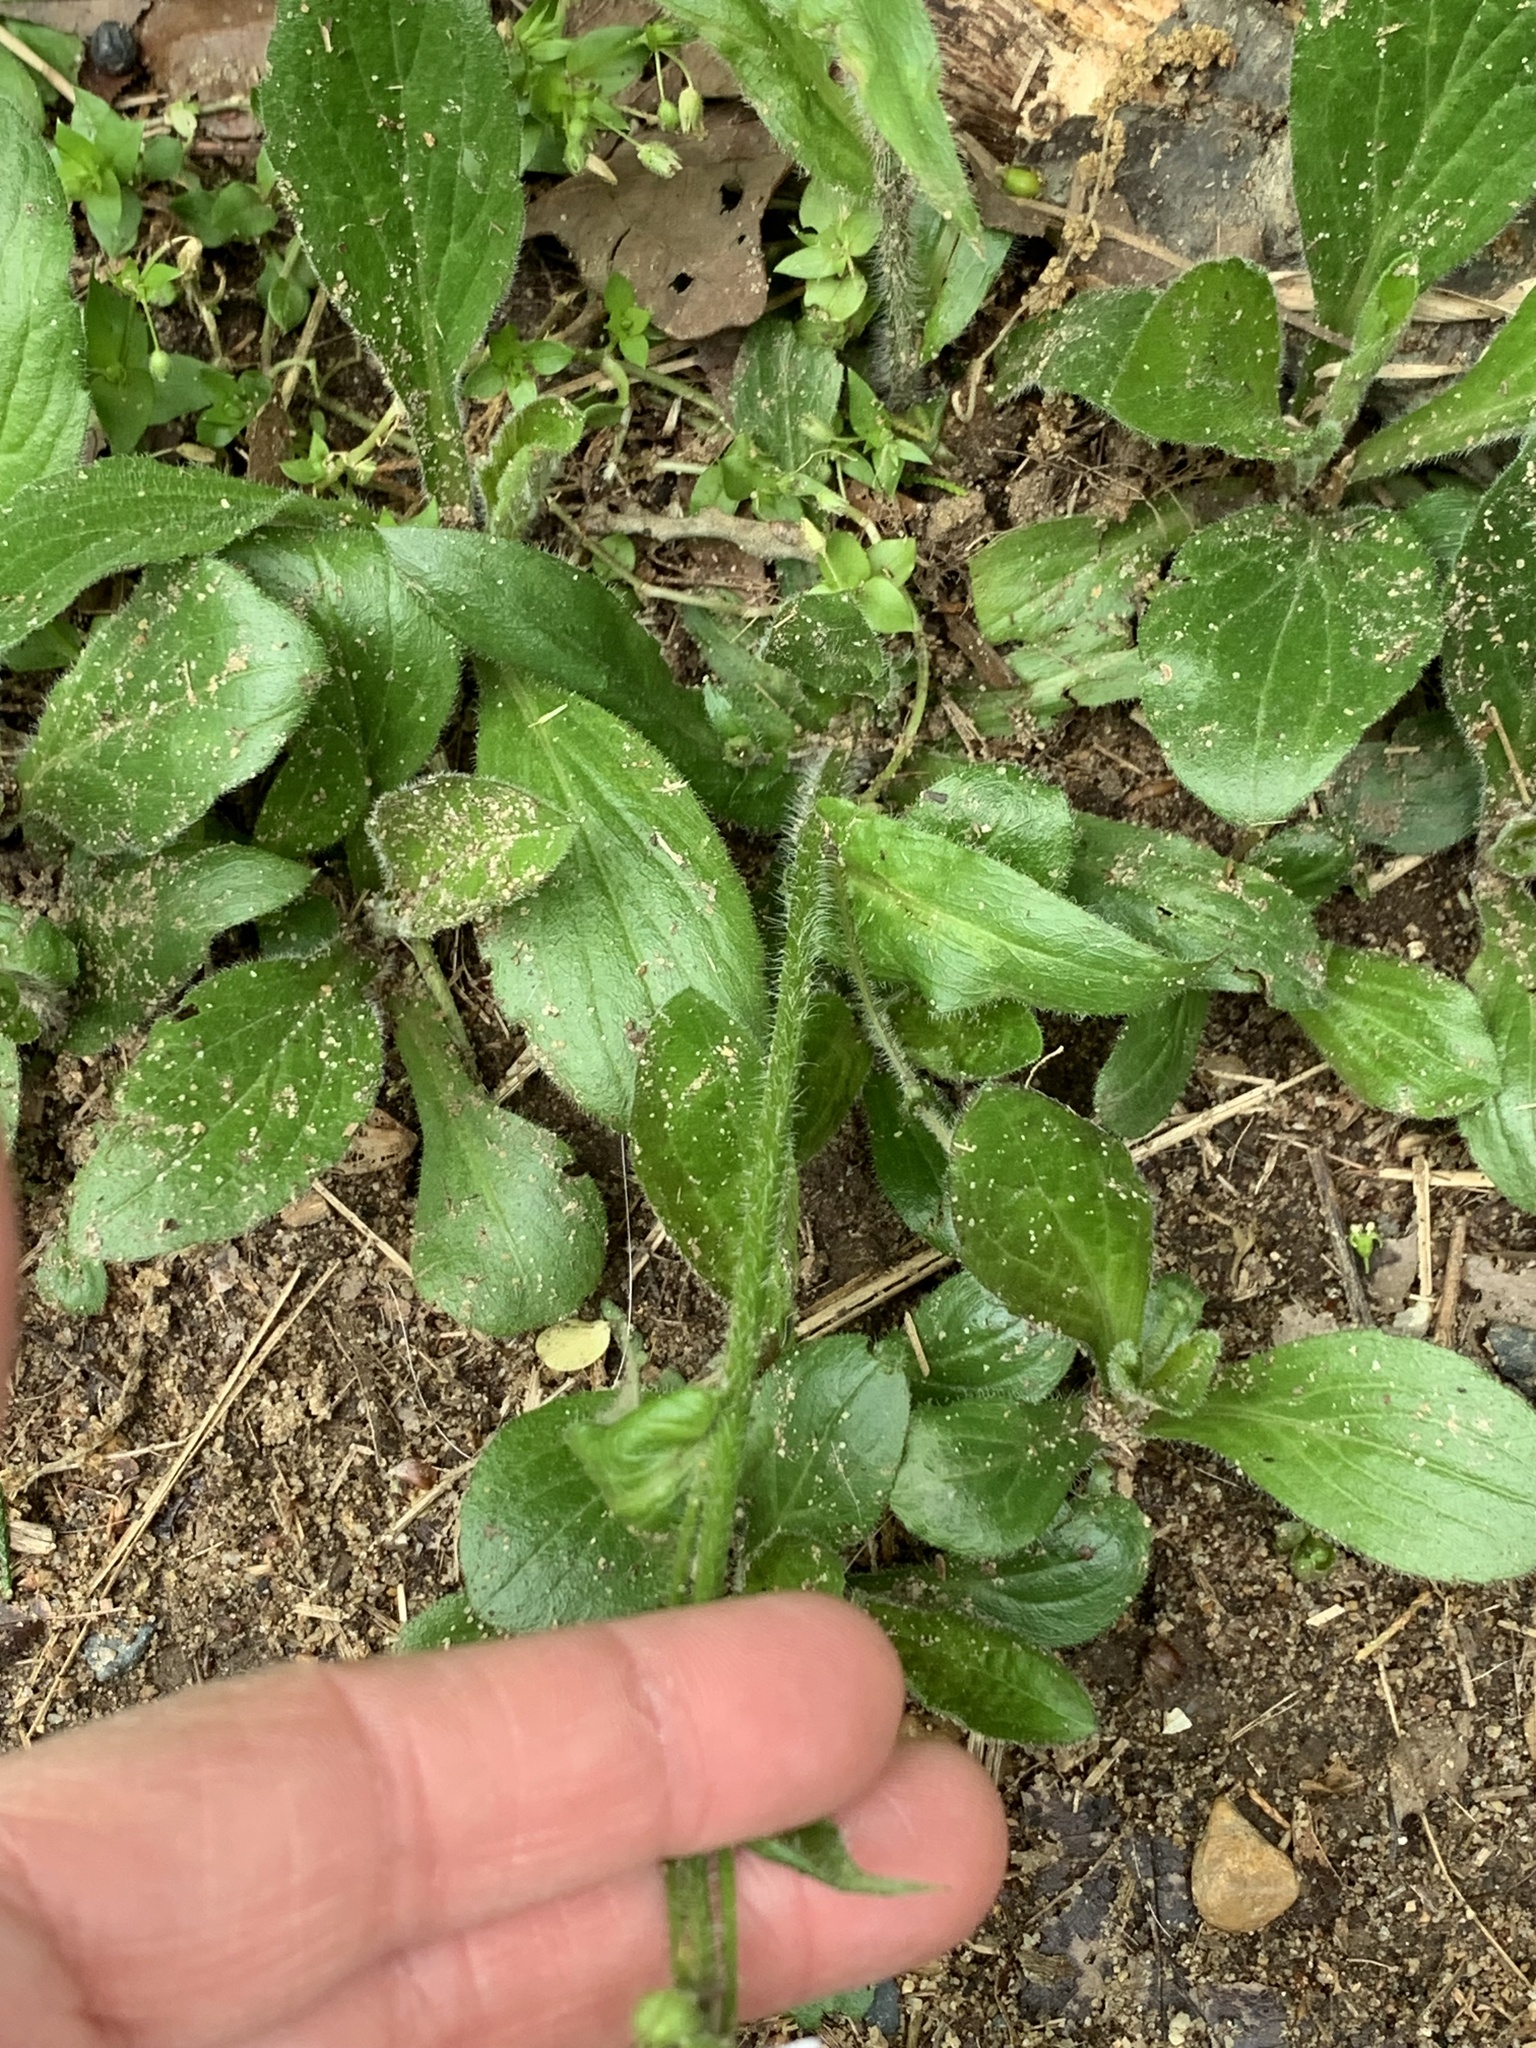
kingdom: Plantae
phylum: Tracheophyta
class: Magnoliopsida
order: Asterales
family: Asteraceae
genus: Erigeron
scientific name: Erigeron pulchellus
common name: Hairy fleabane
